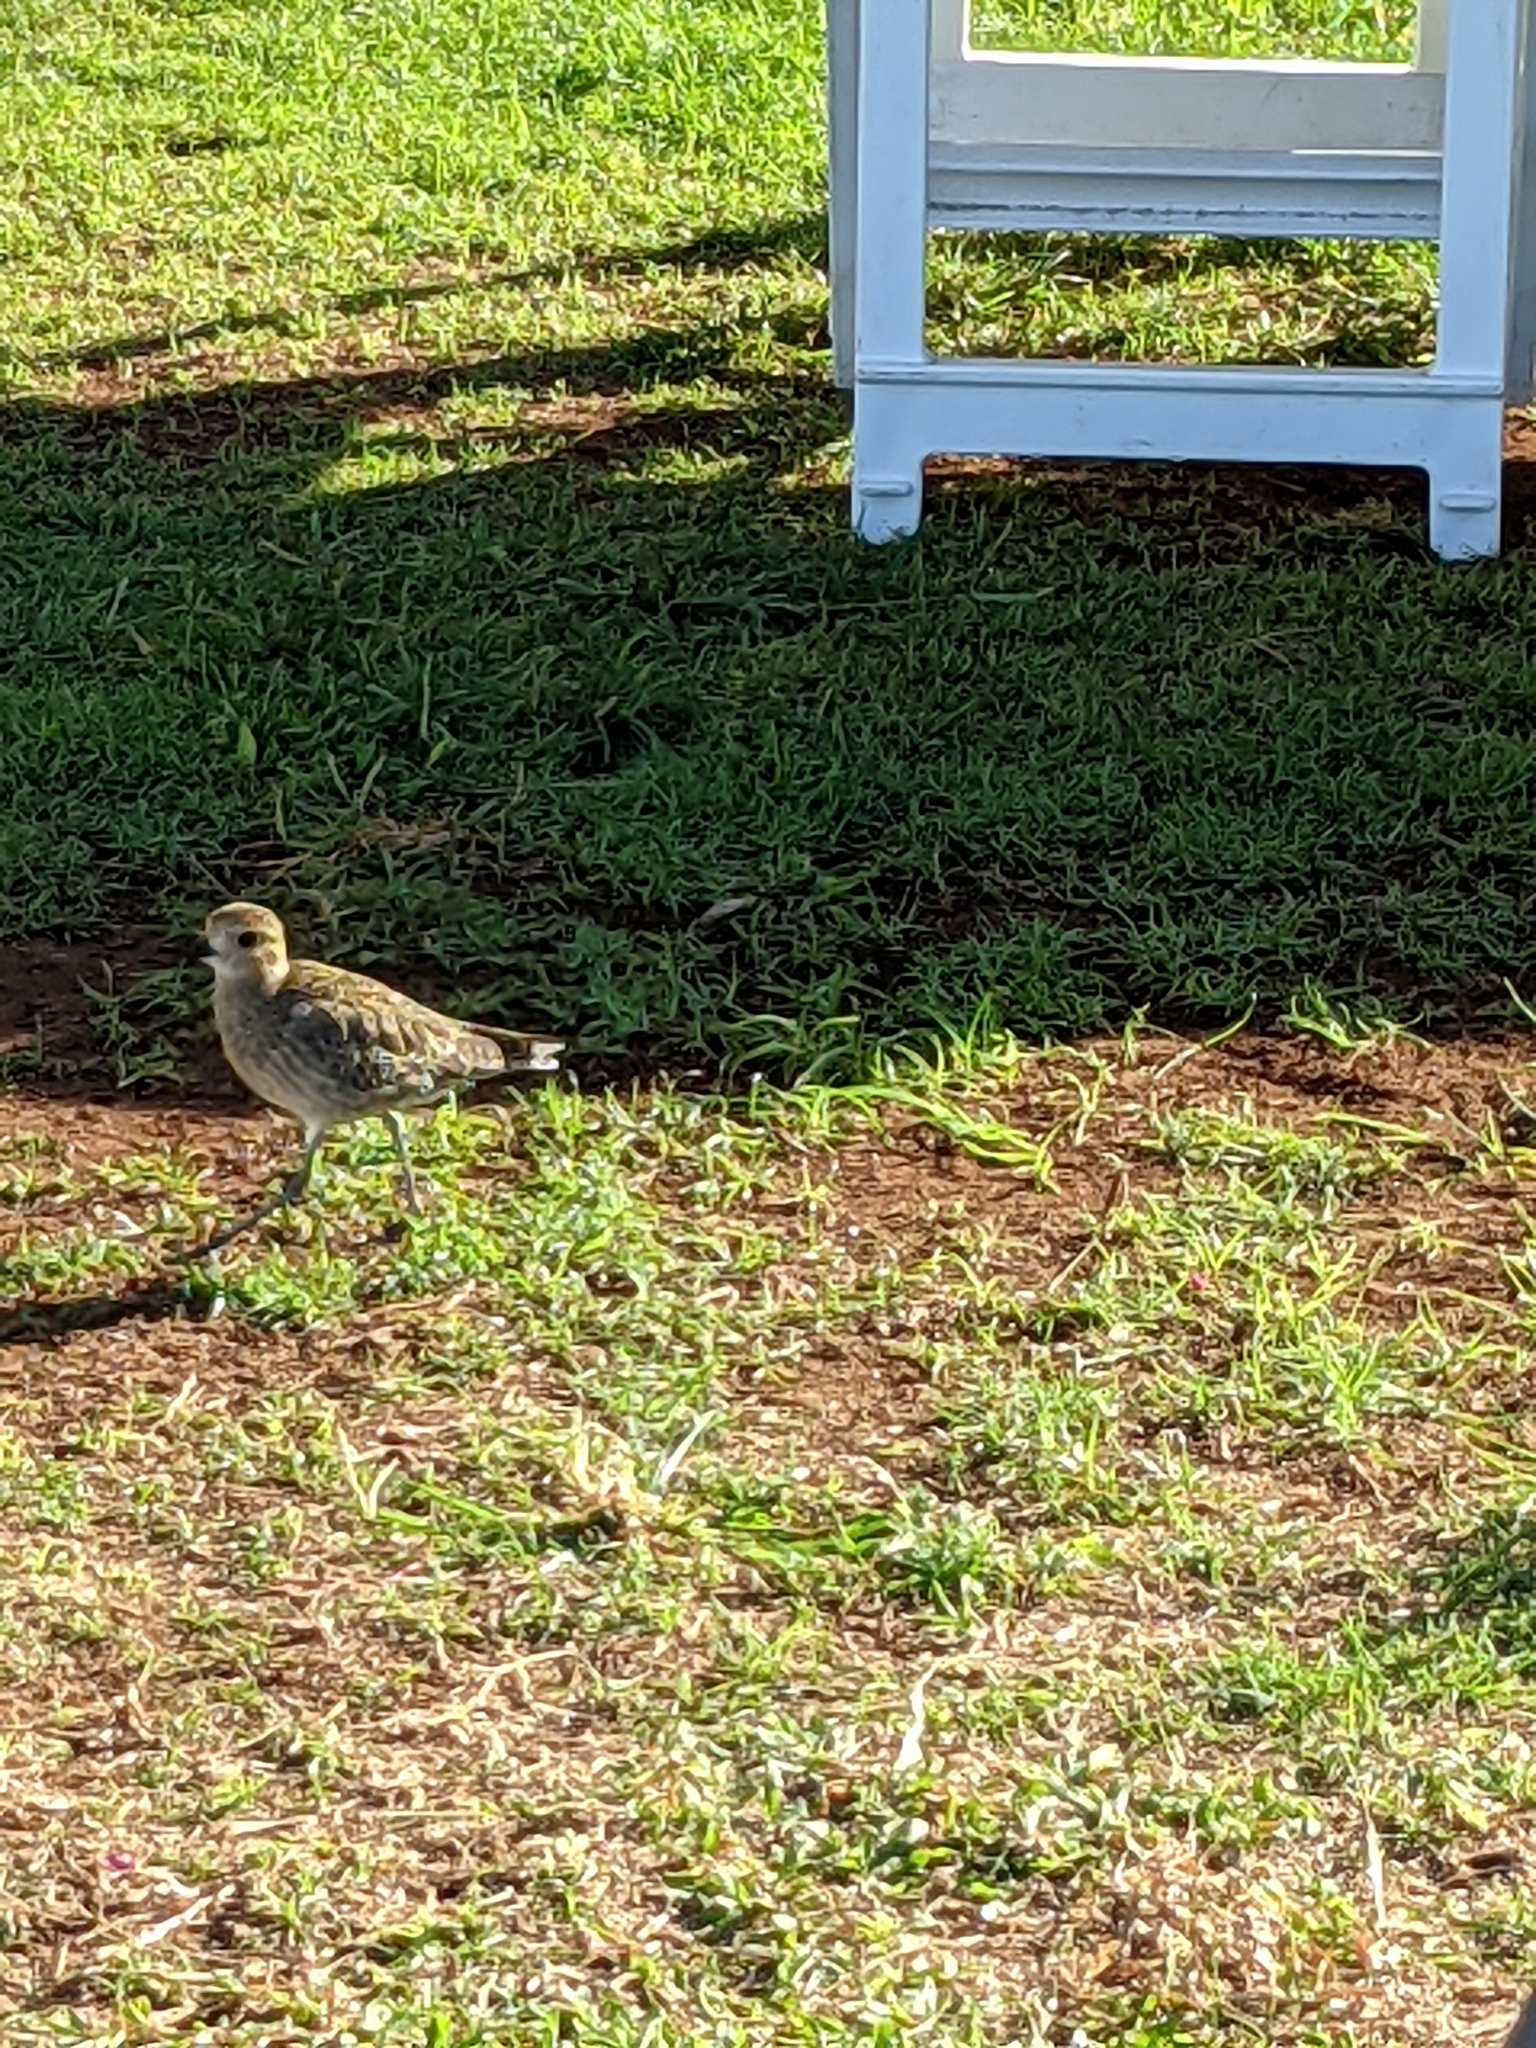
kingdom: Animalia
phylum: Chordata
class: Aves
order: Charadriiformes
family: Charadriidae
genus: Pluvialis
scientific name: Pluvialis fulva
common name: Pacific golden plover
